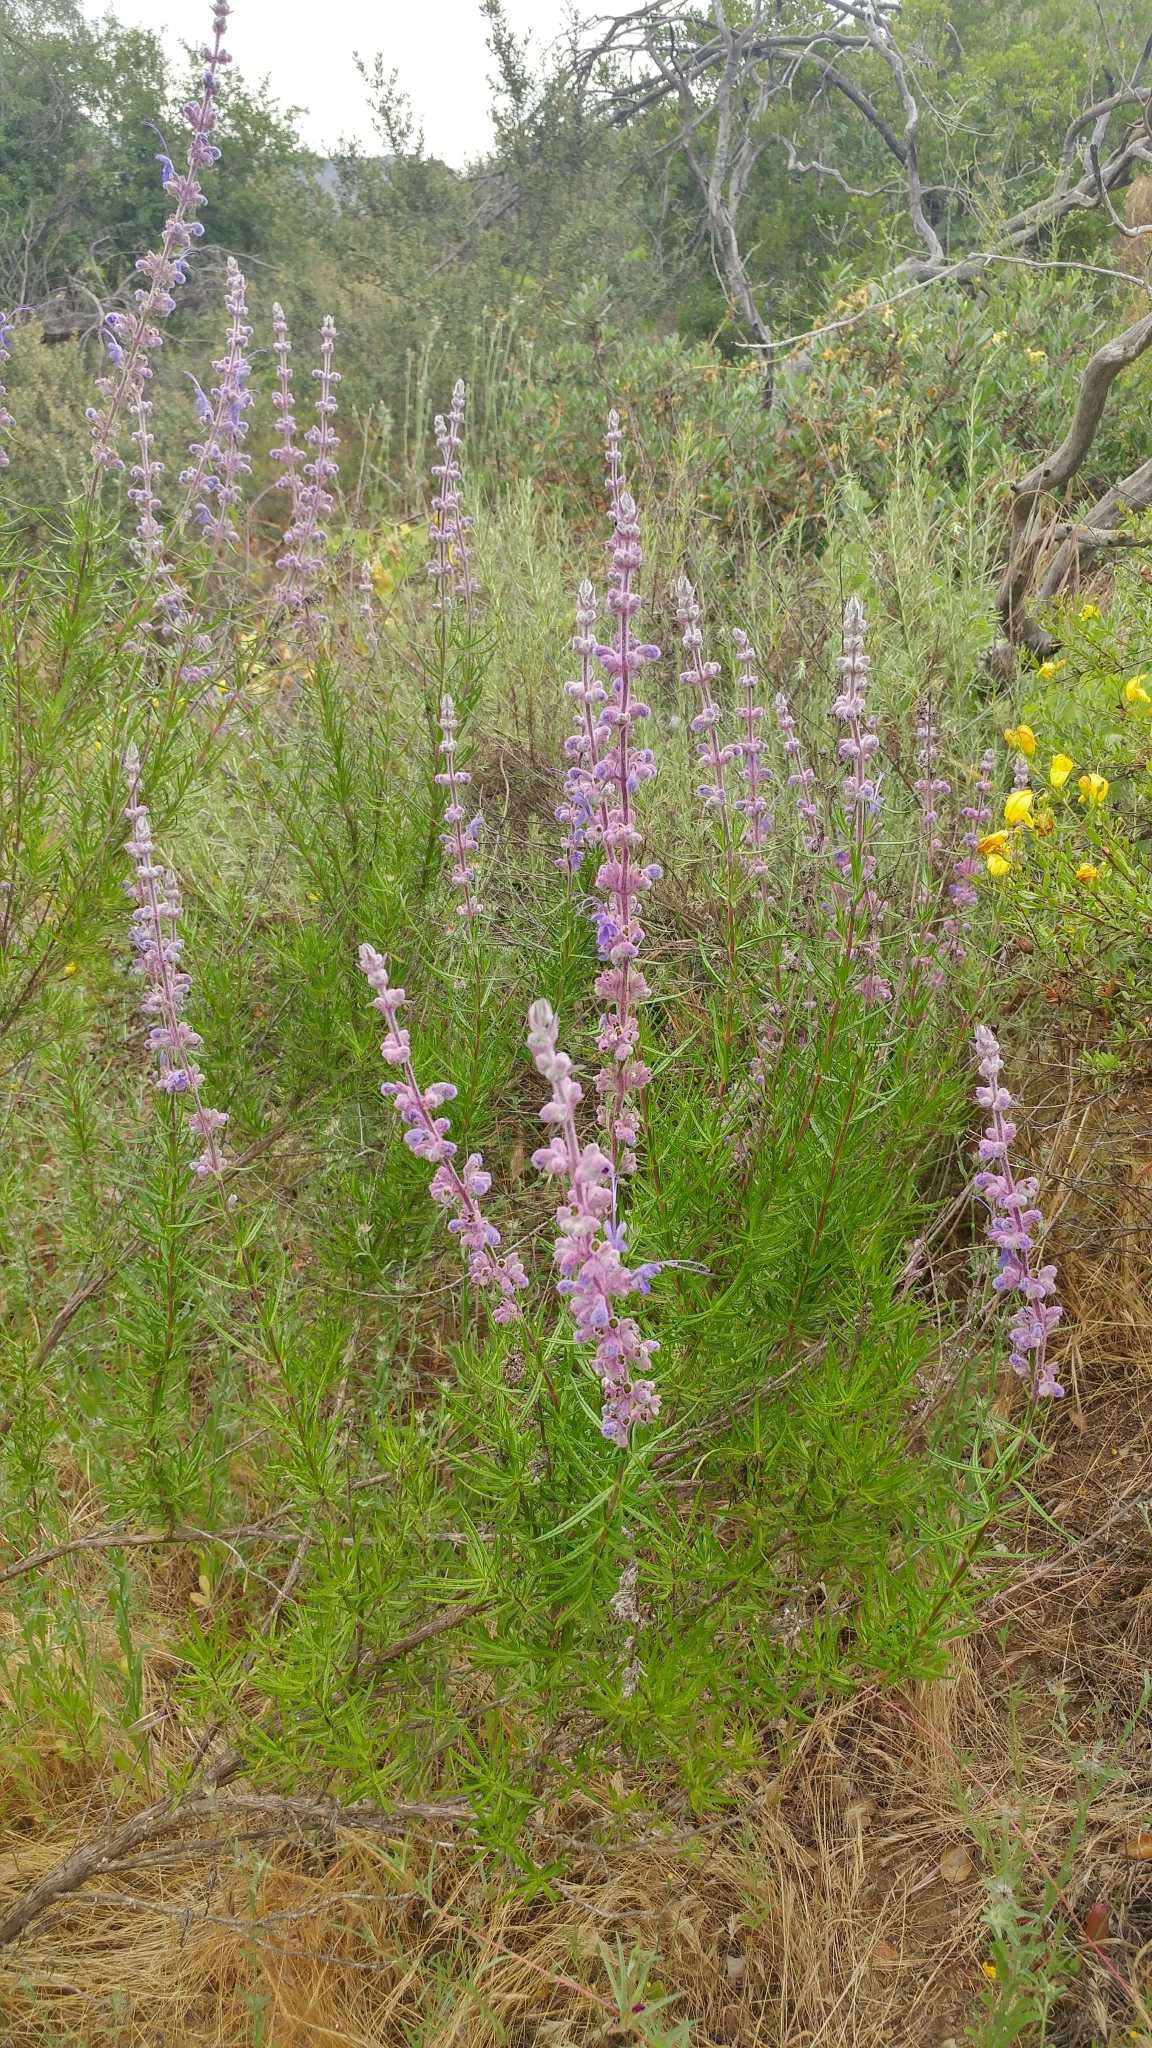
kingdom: Plantae
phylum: Tracheophyta
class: Magnoliopsida
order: Lamiales
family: Lamiaceae
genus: Trichostema
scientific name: Trichostema lanatum
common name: Woolly bluecurls
